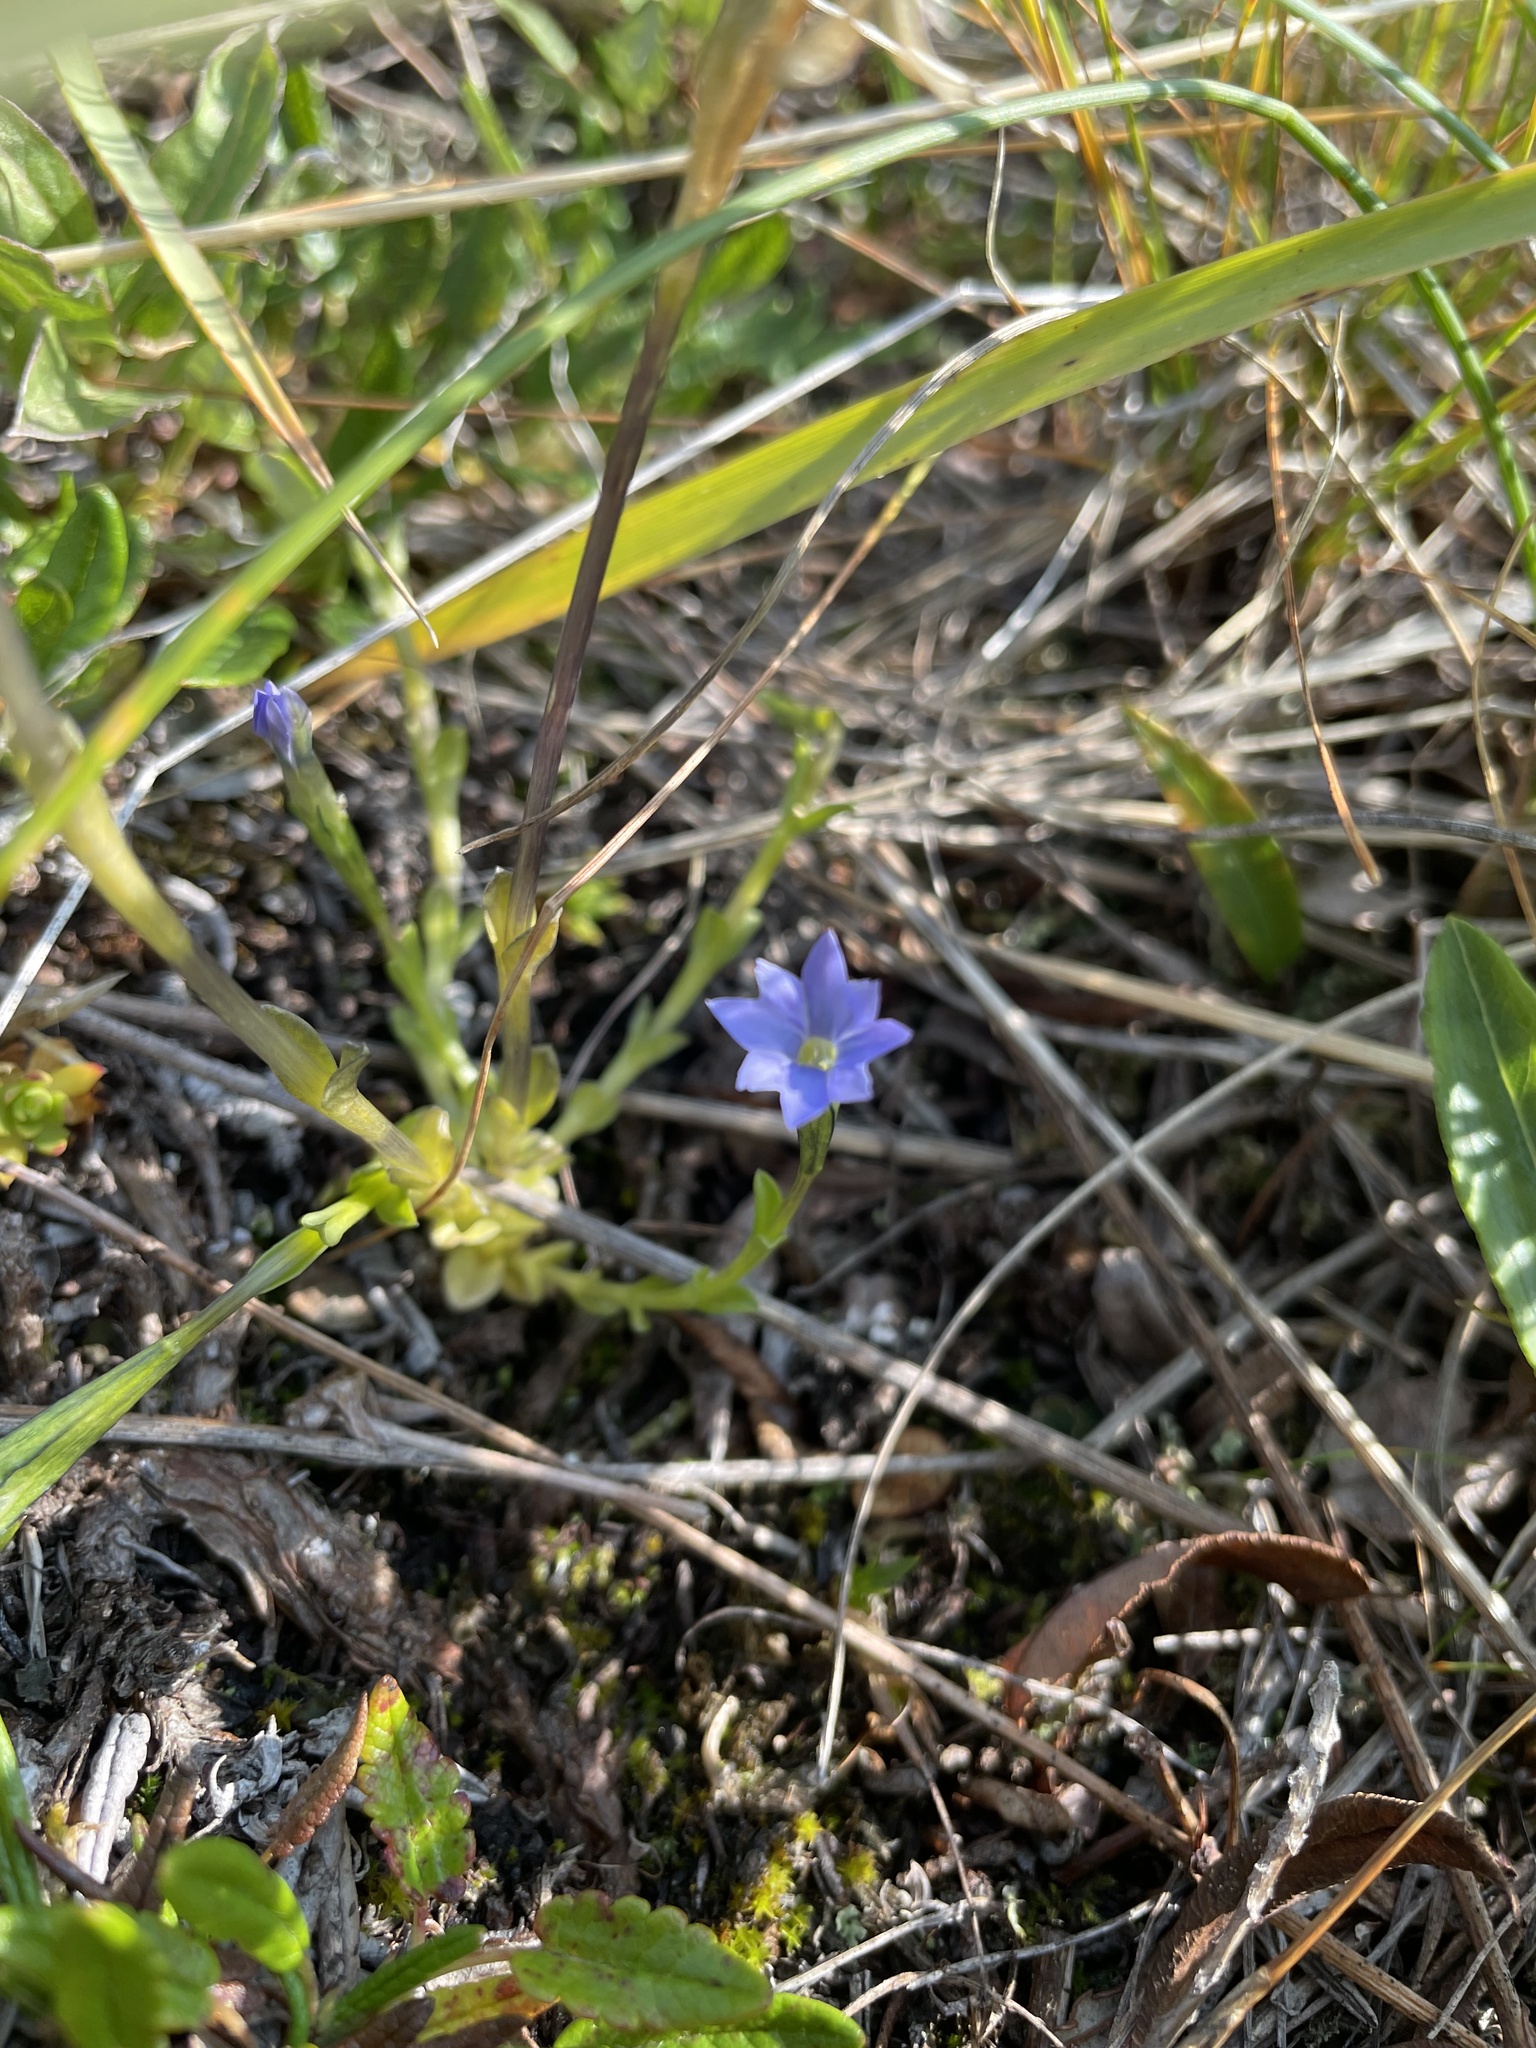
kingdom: Plantae
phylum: Tracheophyta
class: Magnoliopsida
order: Gentianales
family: Gentianaceae
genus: Gentiana
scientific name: Gentiana prostrata
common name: Moss gentian
